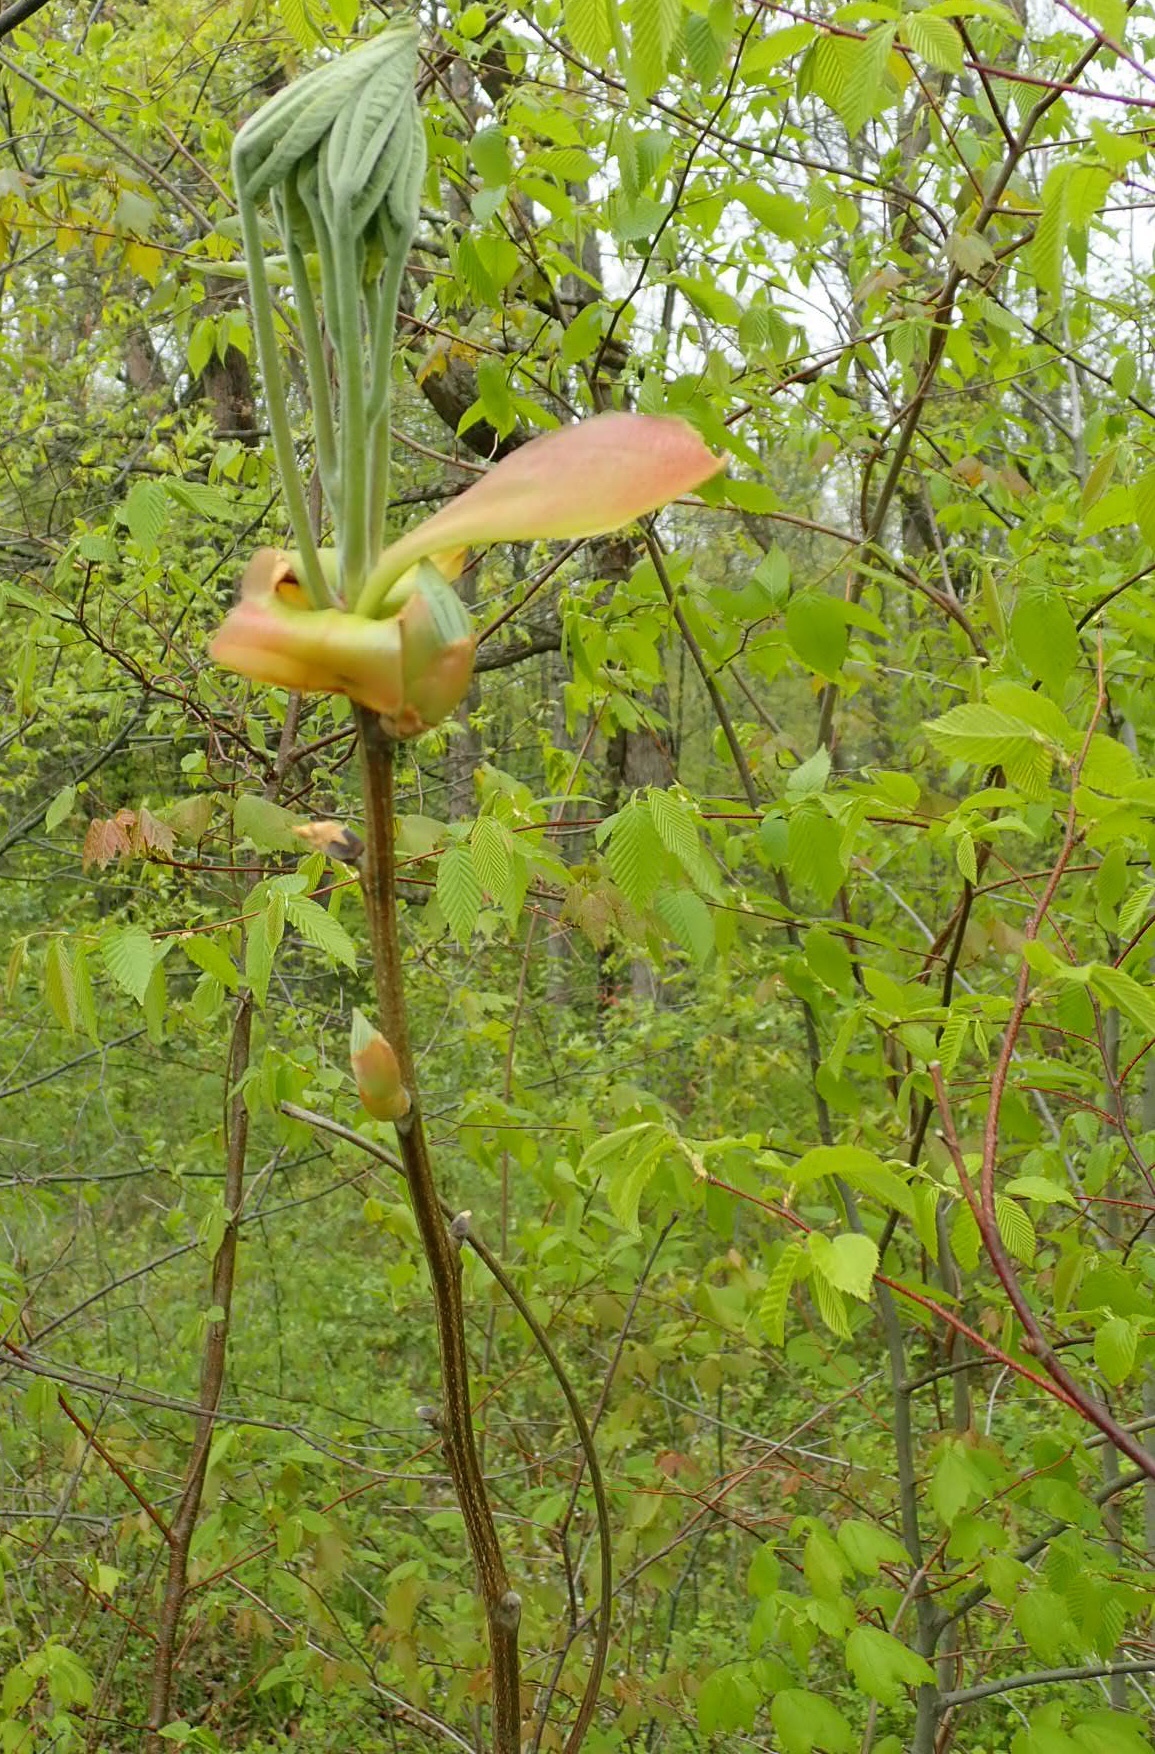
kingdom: Plantae
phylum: Tracheophyta
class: Magnoliopsida
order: Fagales
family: Juglandaceae
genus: Carya
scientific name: Carya ovata
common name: Shagbark hickory
